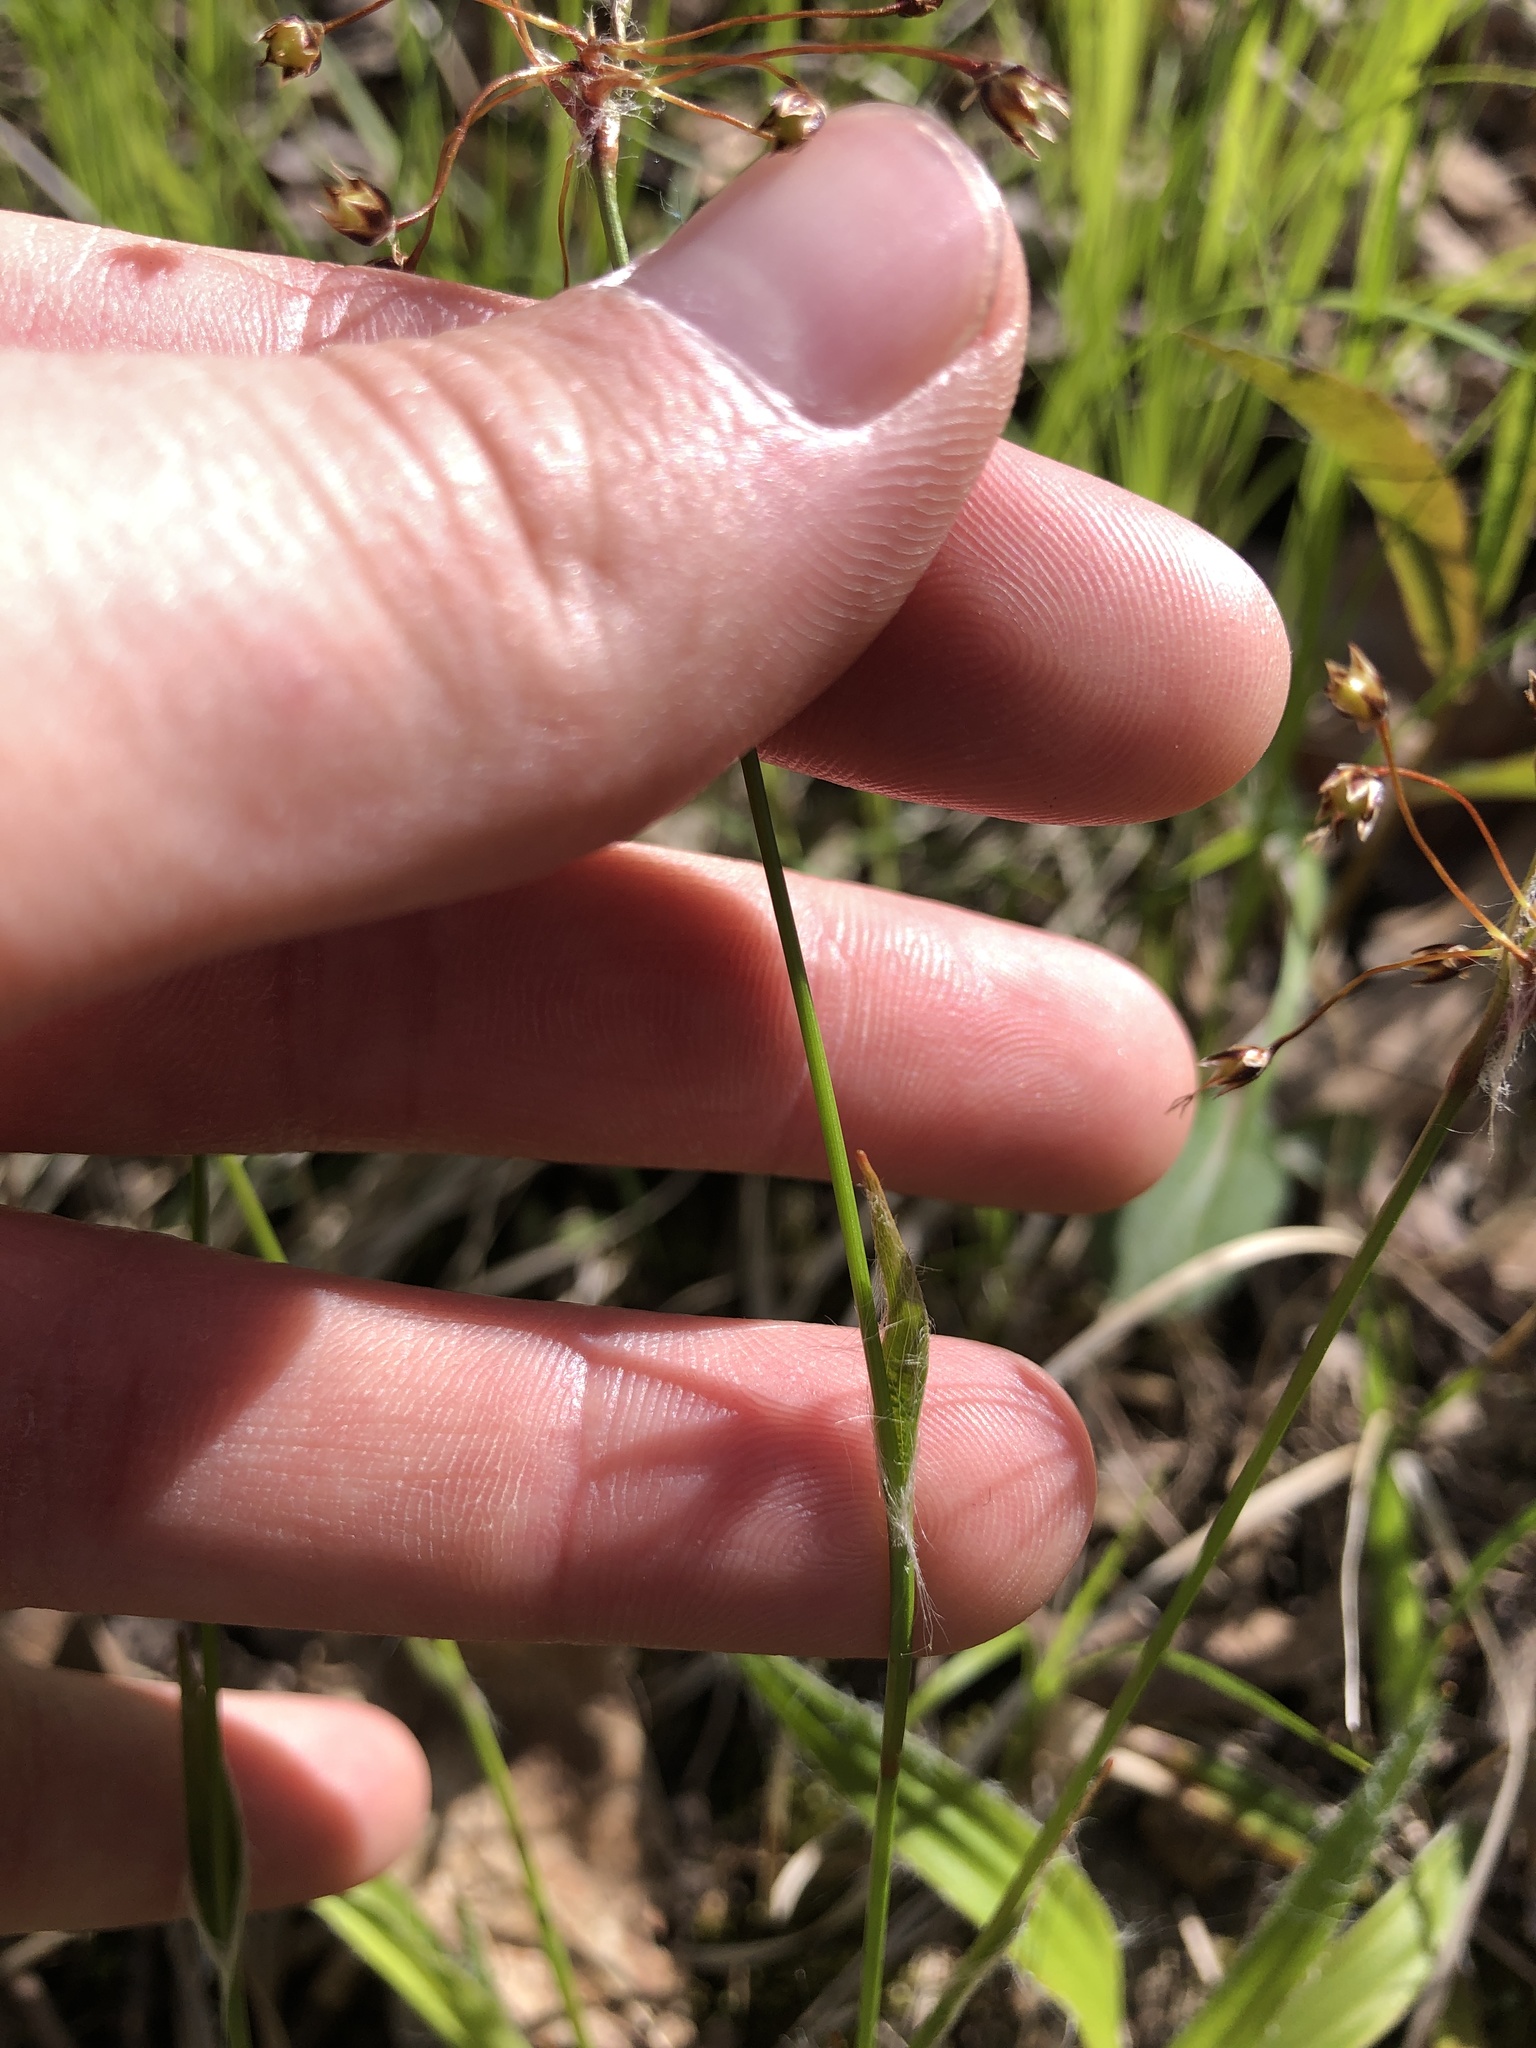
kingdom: Plantae
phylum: Tracheophyta
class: Liliopsida
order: Poales
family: Juncaceae
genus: Luzula
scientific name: Luzula acuminata
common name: Hairy woodrush
